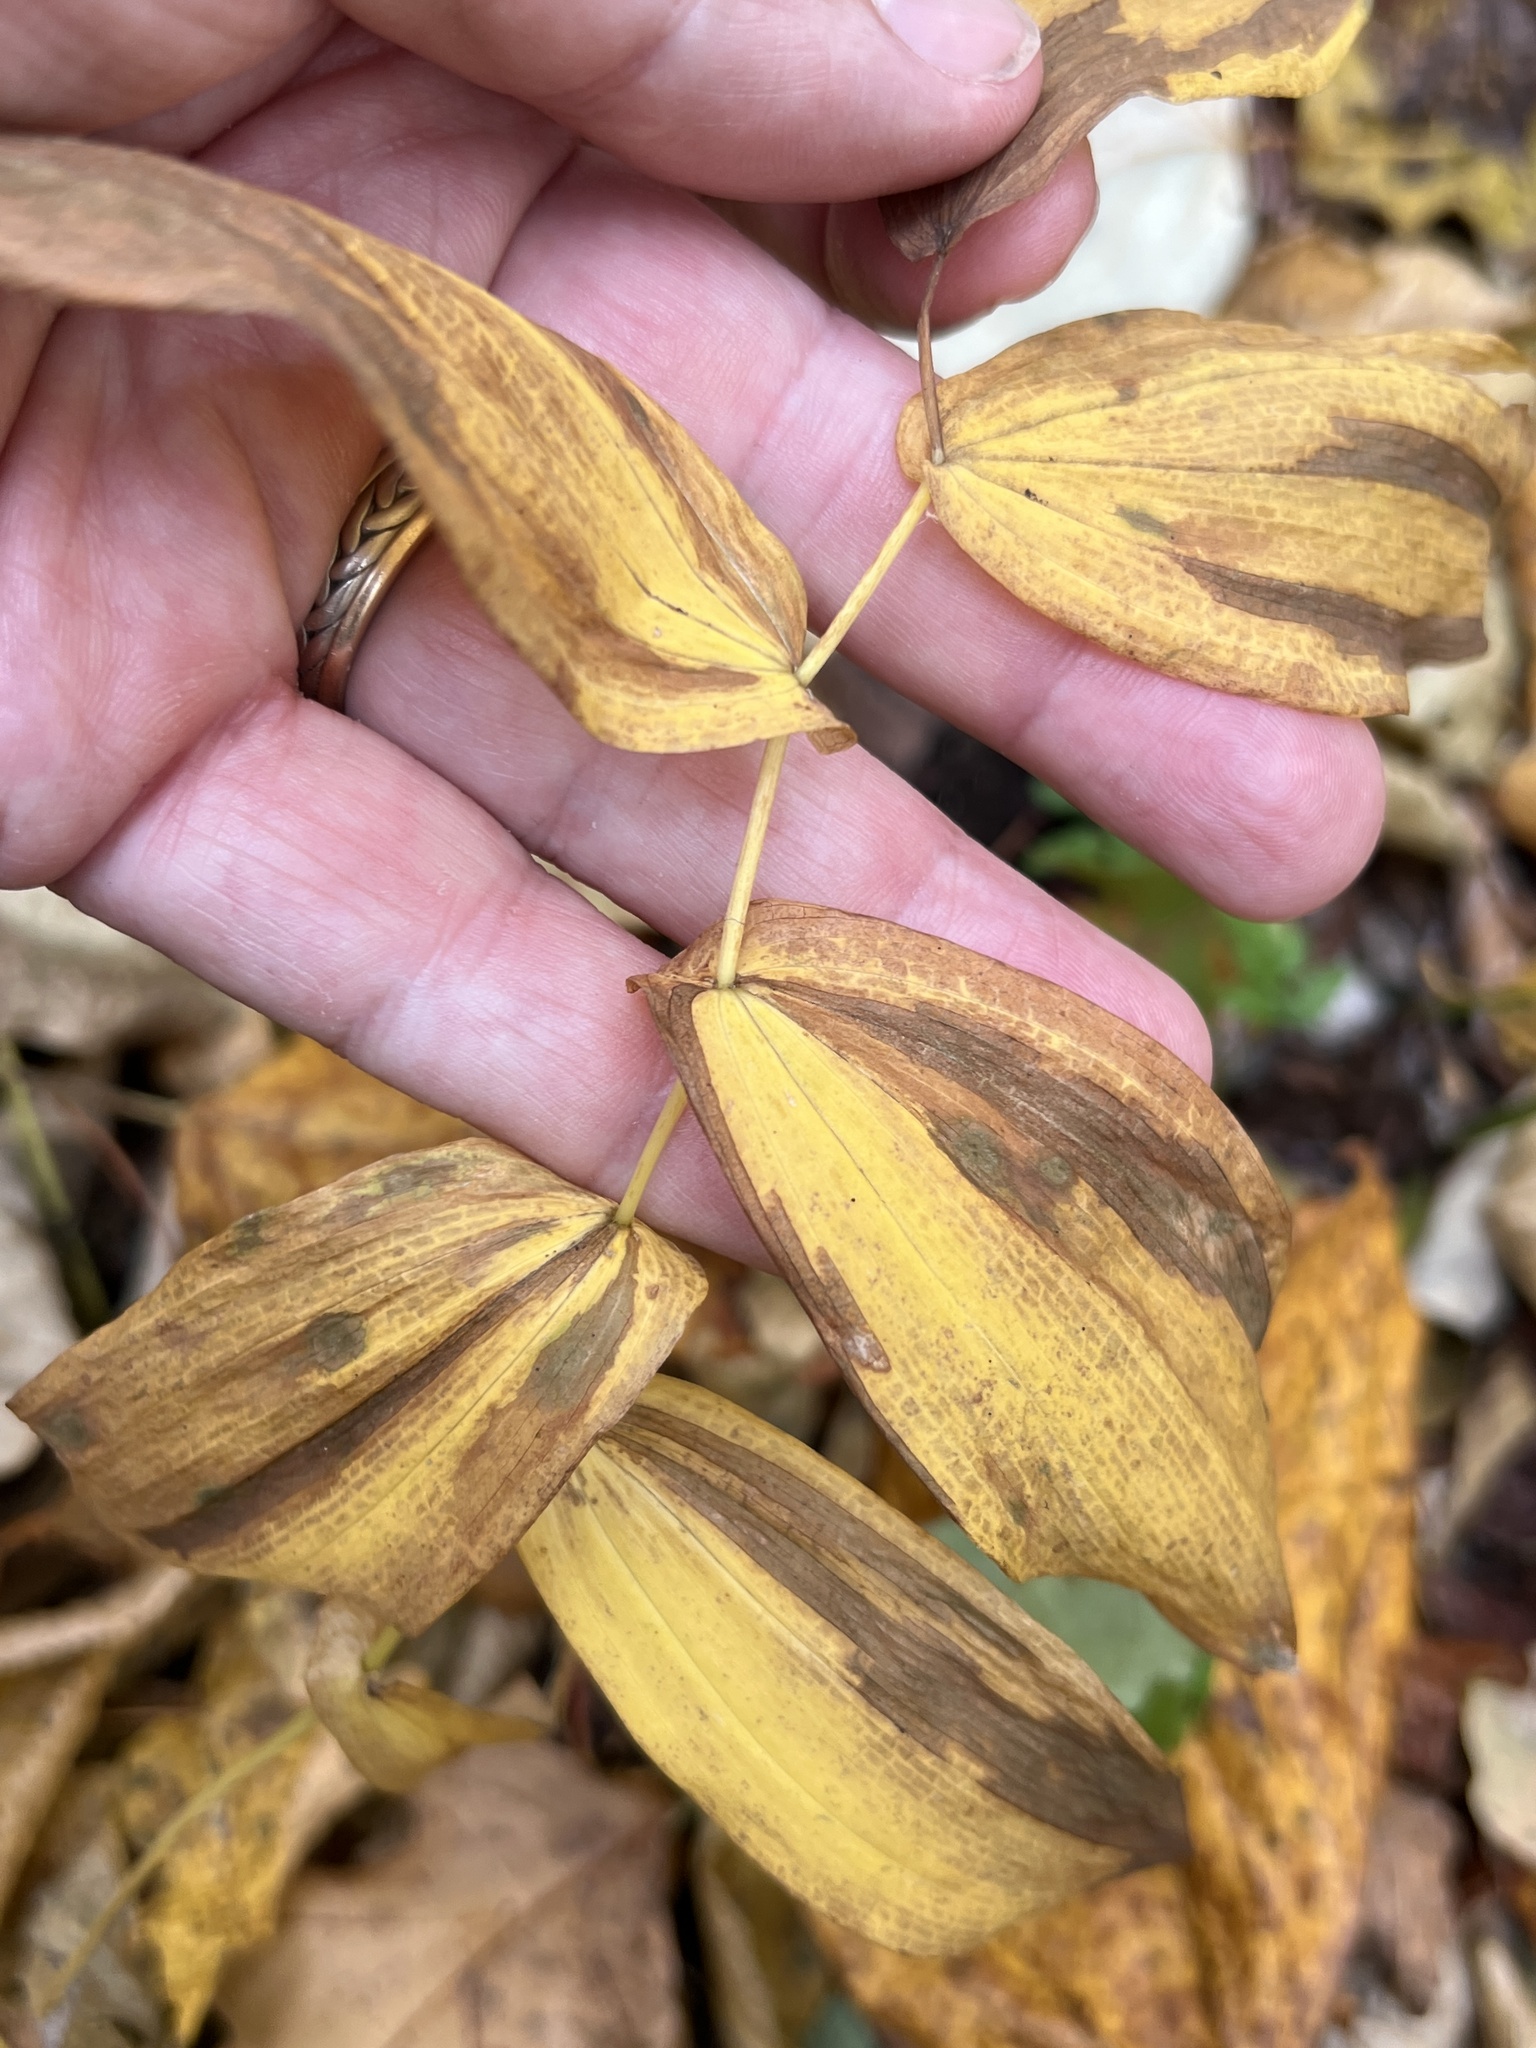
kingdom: Plantae
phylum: Tracheophyta
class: Liliopsida
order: Liliales
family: Colchicaceae
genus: Uvularia
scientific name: Uvularia grandiflora
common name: Bellwort
